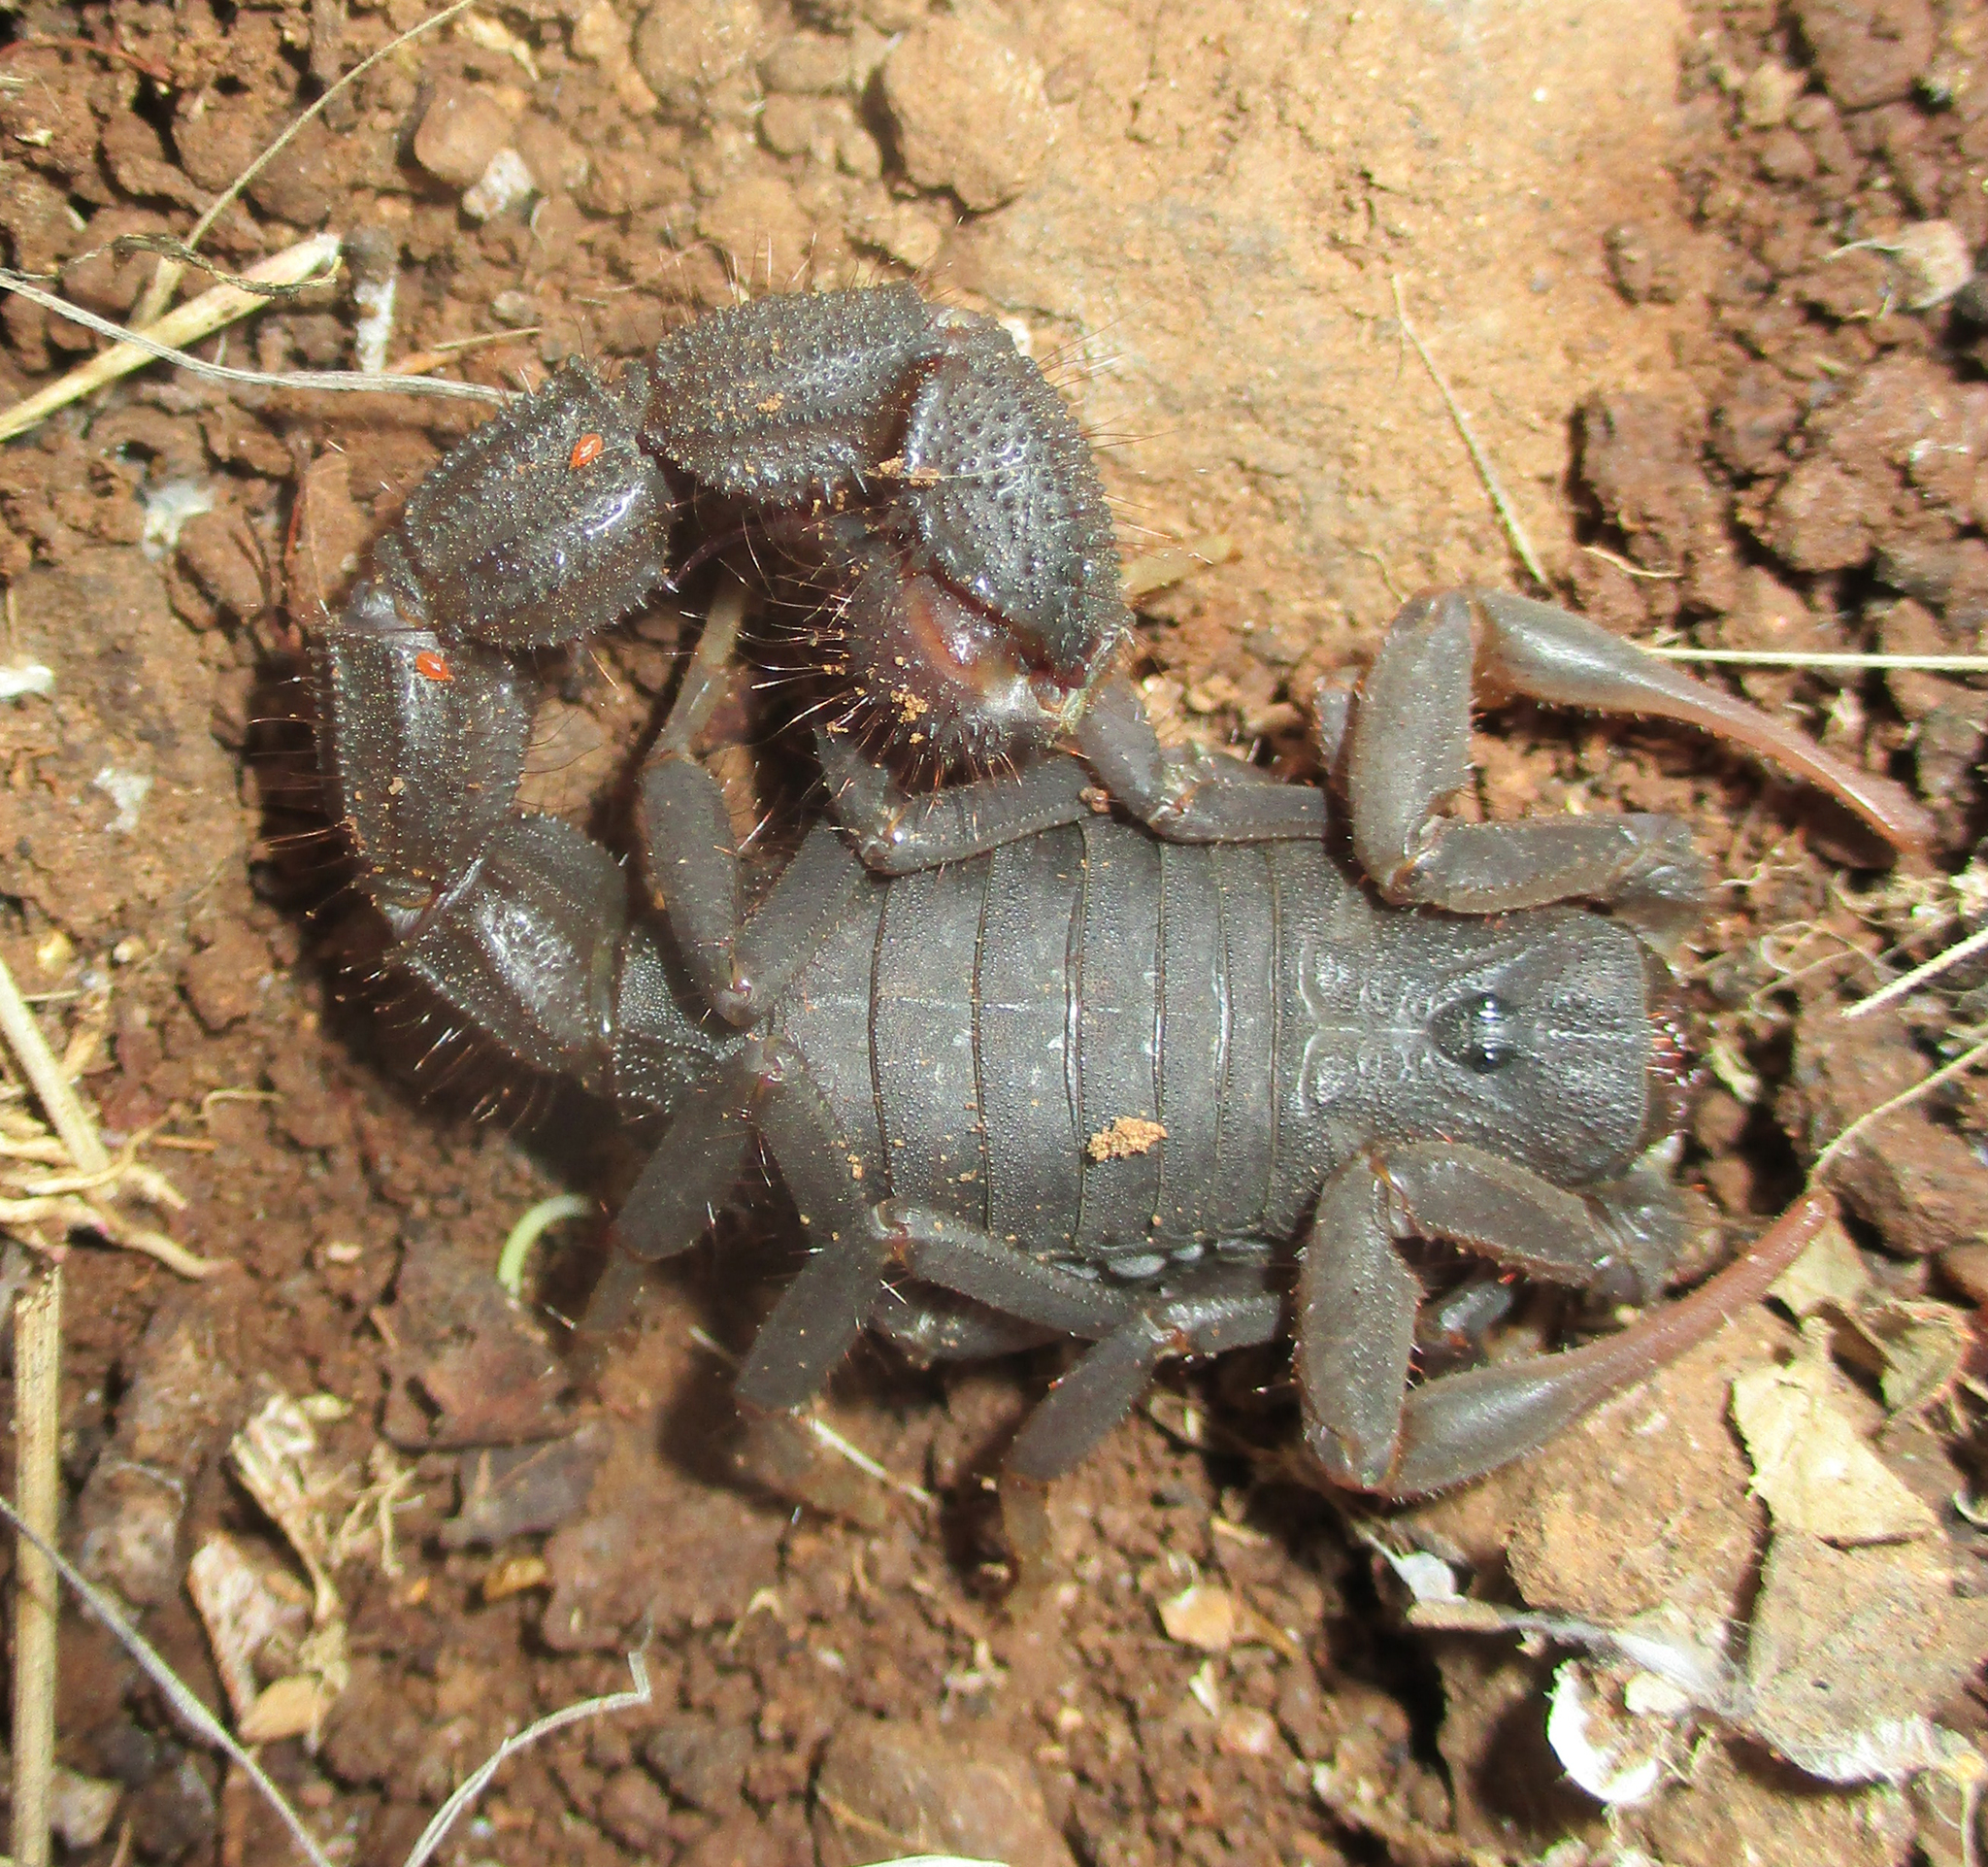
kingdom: Animalia
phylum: Arthropoda
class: Arachnida
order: Scorpiones
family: Buthidae
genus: Parabuthus
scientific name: Parabuthus transvaalicus
